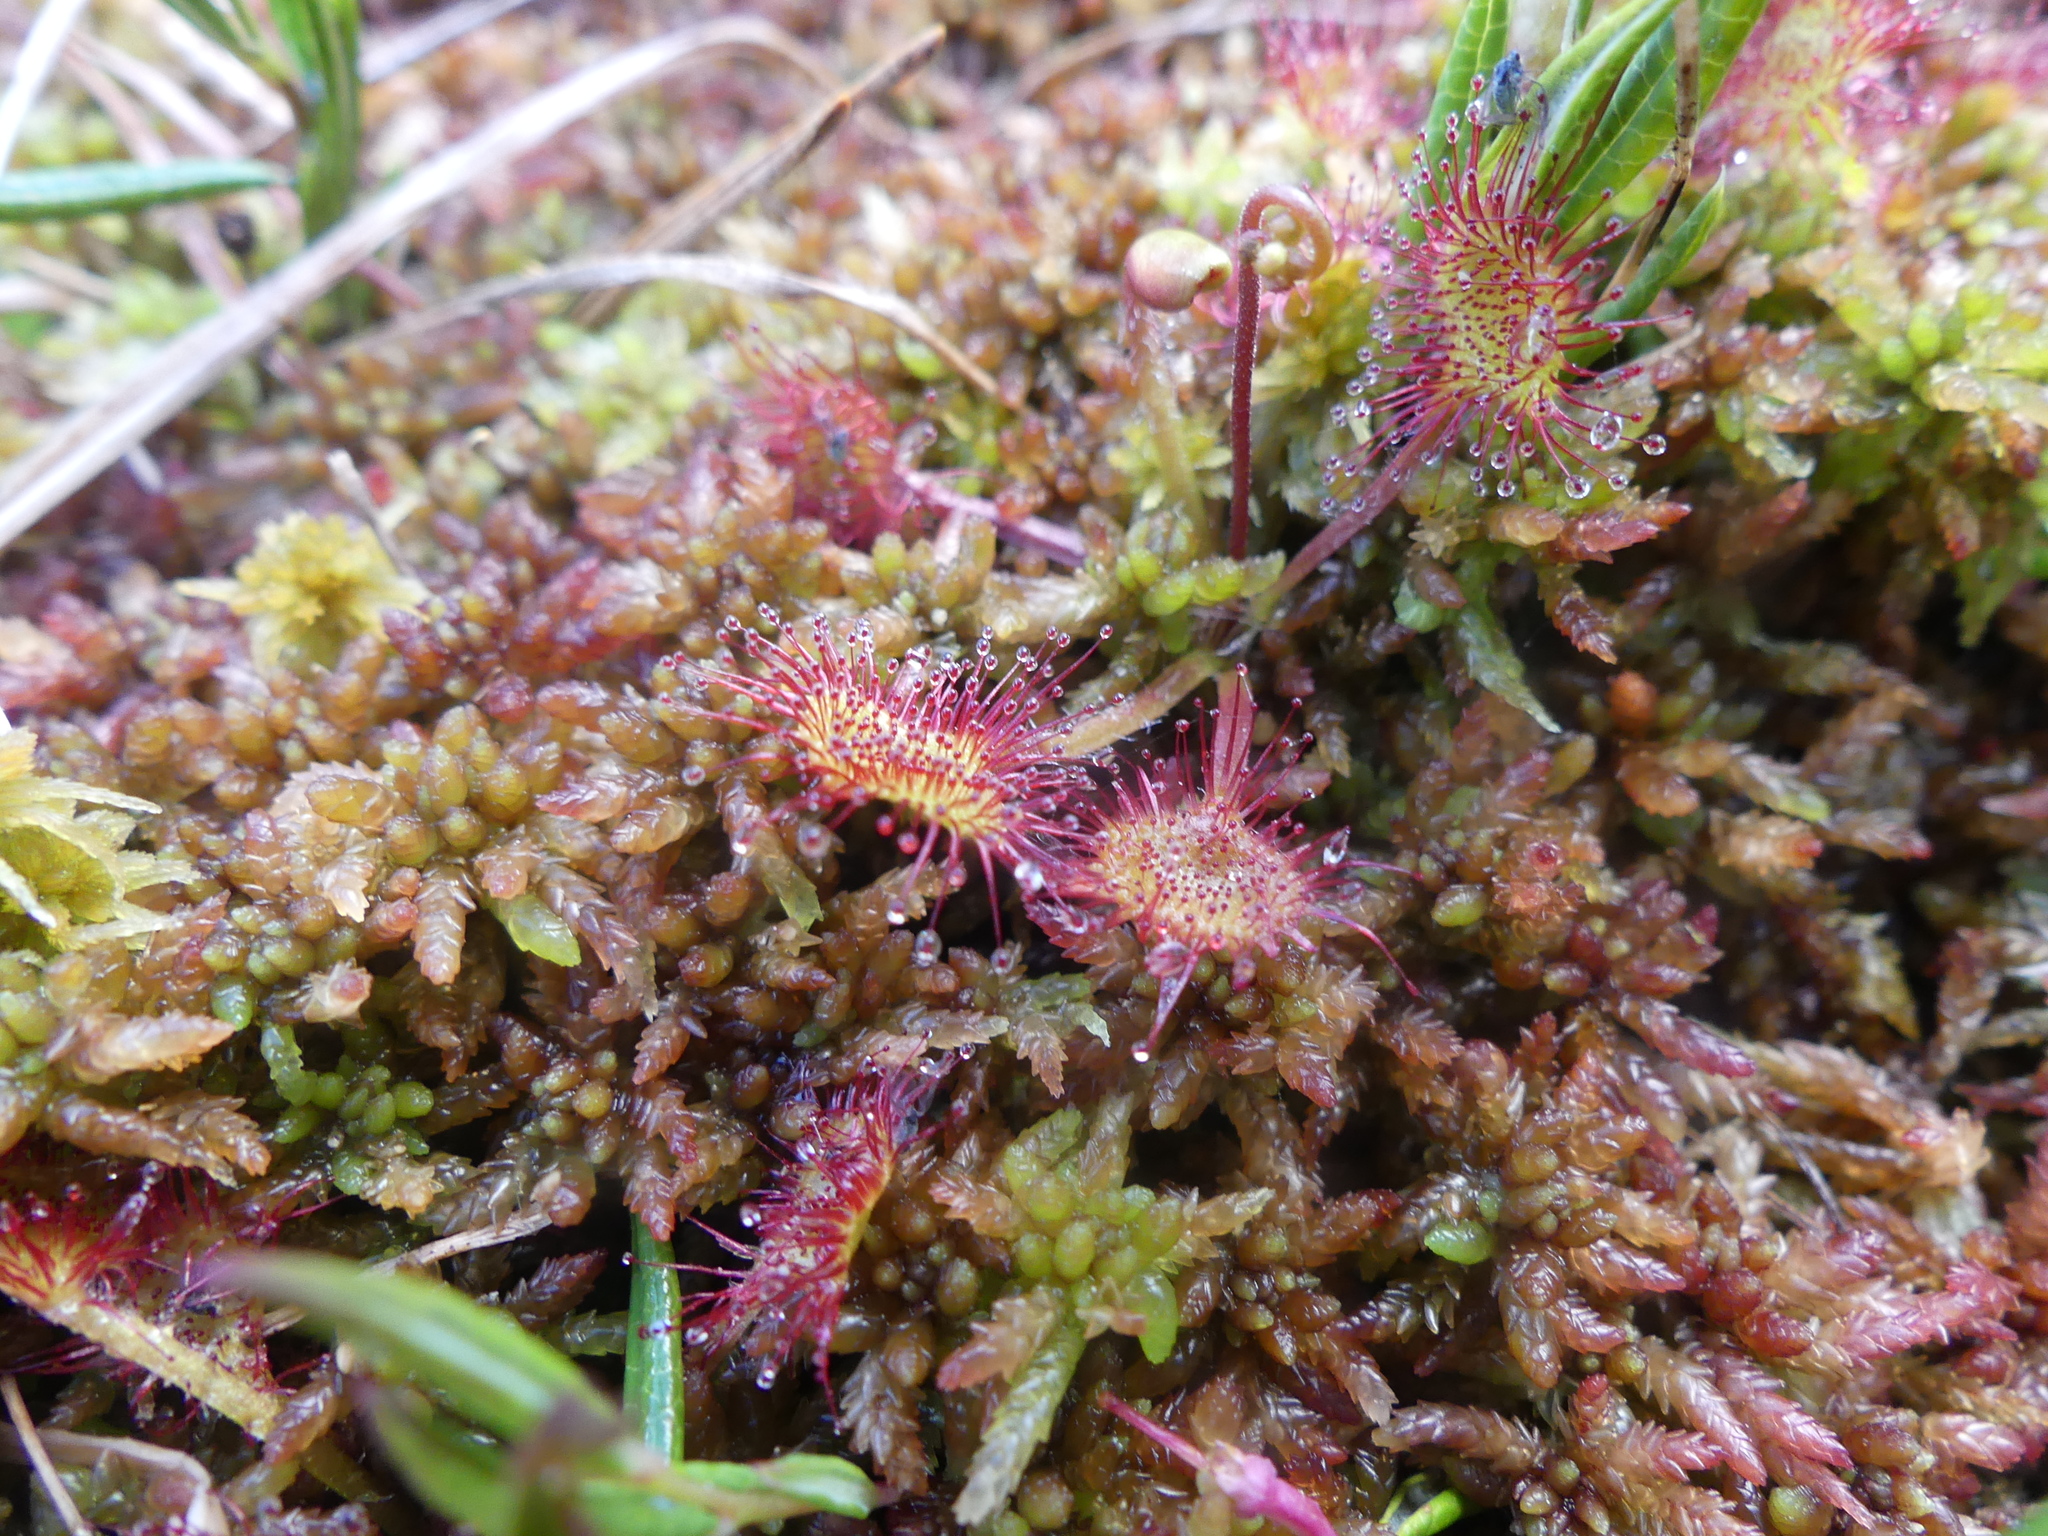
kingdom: Plantae
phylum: Tracheophyta
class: Magnoliopsida
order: Caryophyllales
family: Droseraceae
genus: Drosera
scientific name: Drosera rotundifolia
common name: Round-leaved sundew
